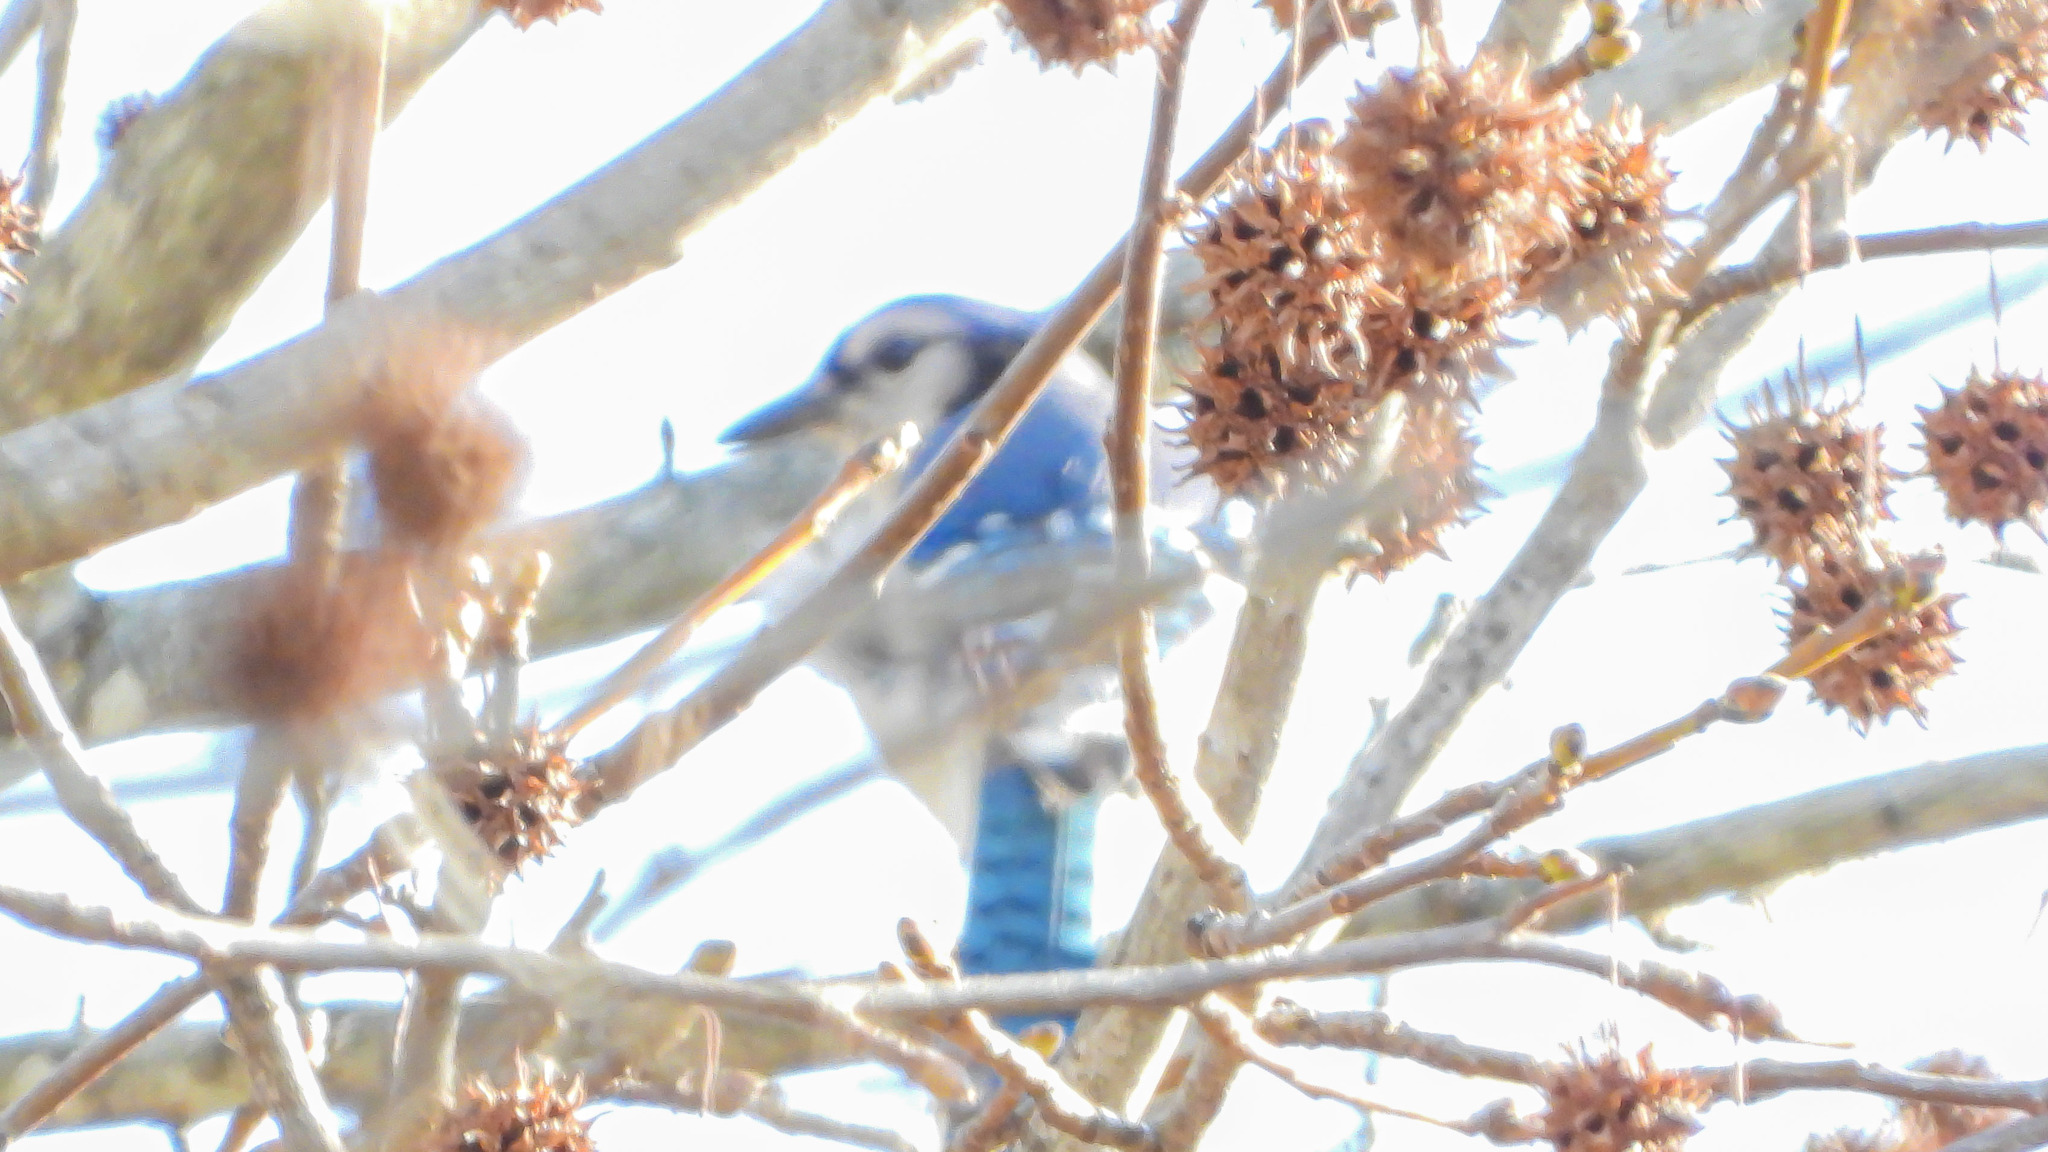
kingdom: Animalia
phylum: Chordata
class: Aves
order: Passeriformes
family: Corvidae
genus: Cyanocitta
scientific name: Cyanocitta cristata
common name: Blue jay
